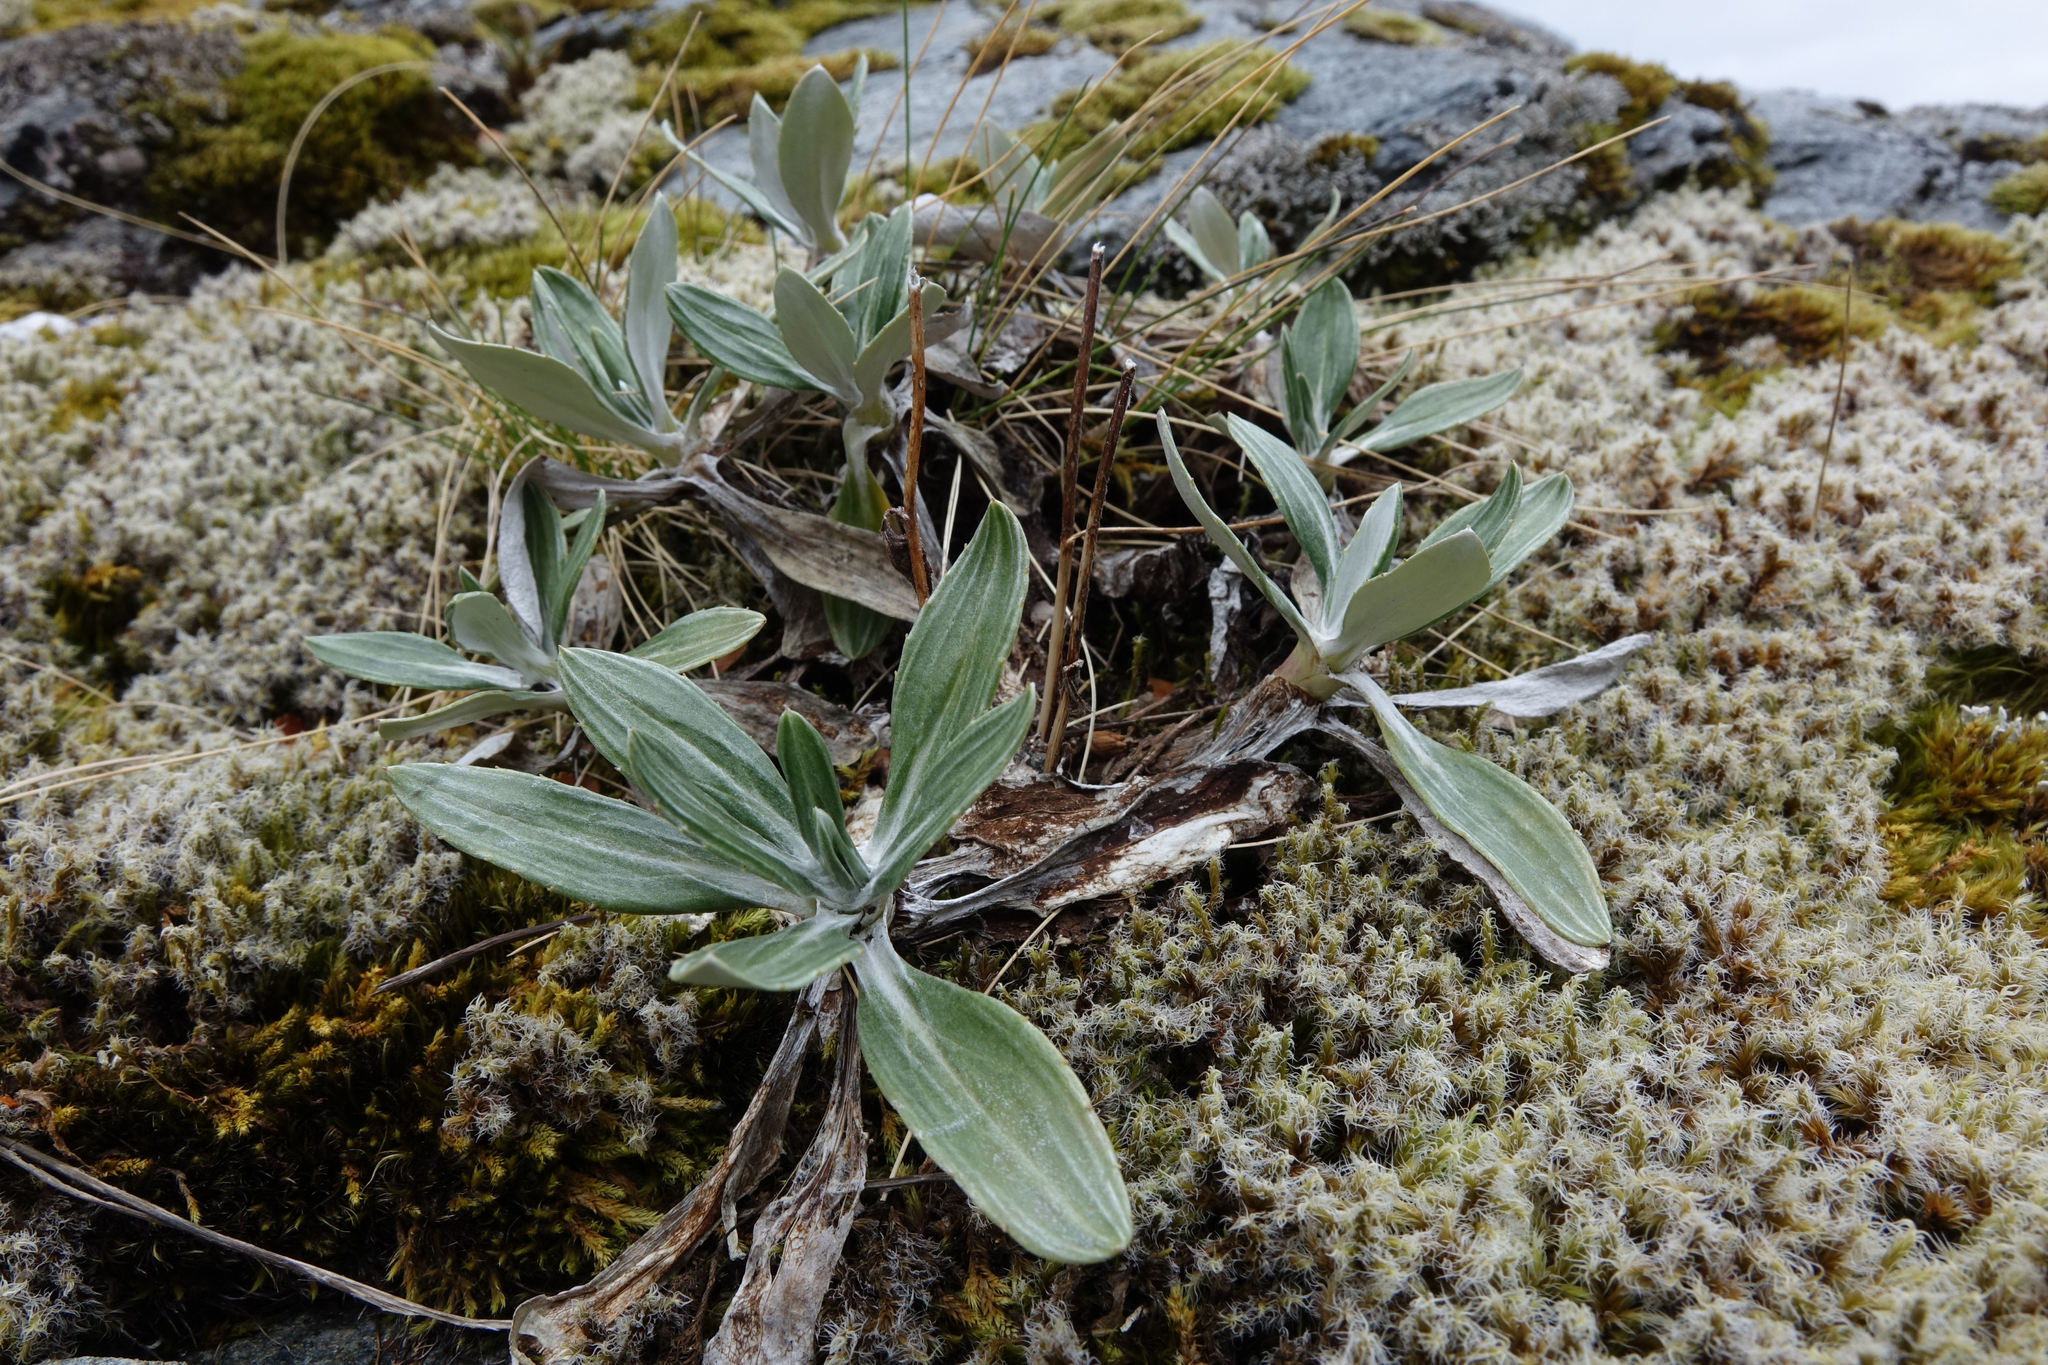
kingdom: Plantae
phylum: Tracheophyta
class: Magnoliopsida
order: Asterales
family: Asteraceae
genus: Celmisia
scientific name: Celmisia durietzii
